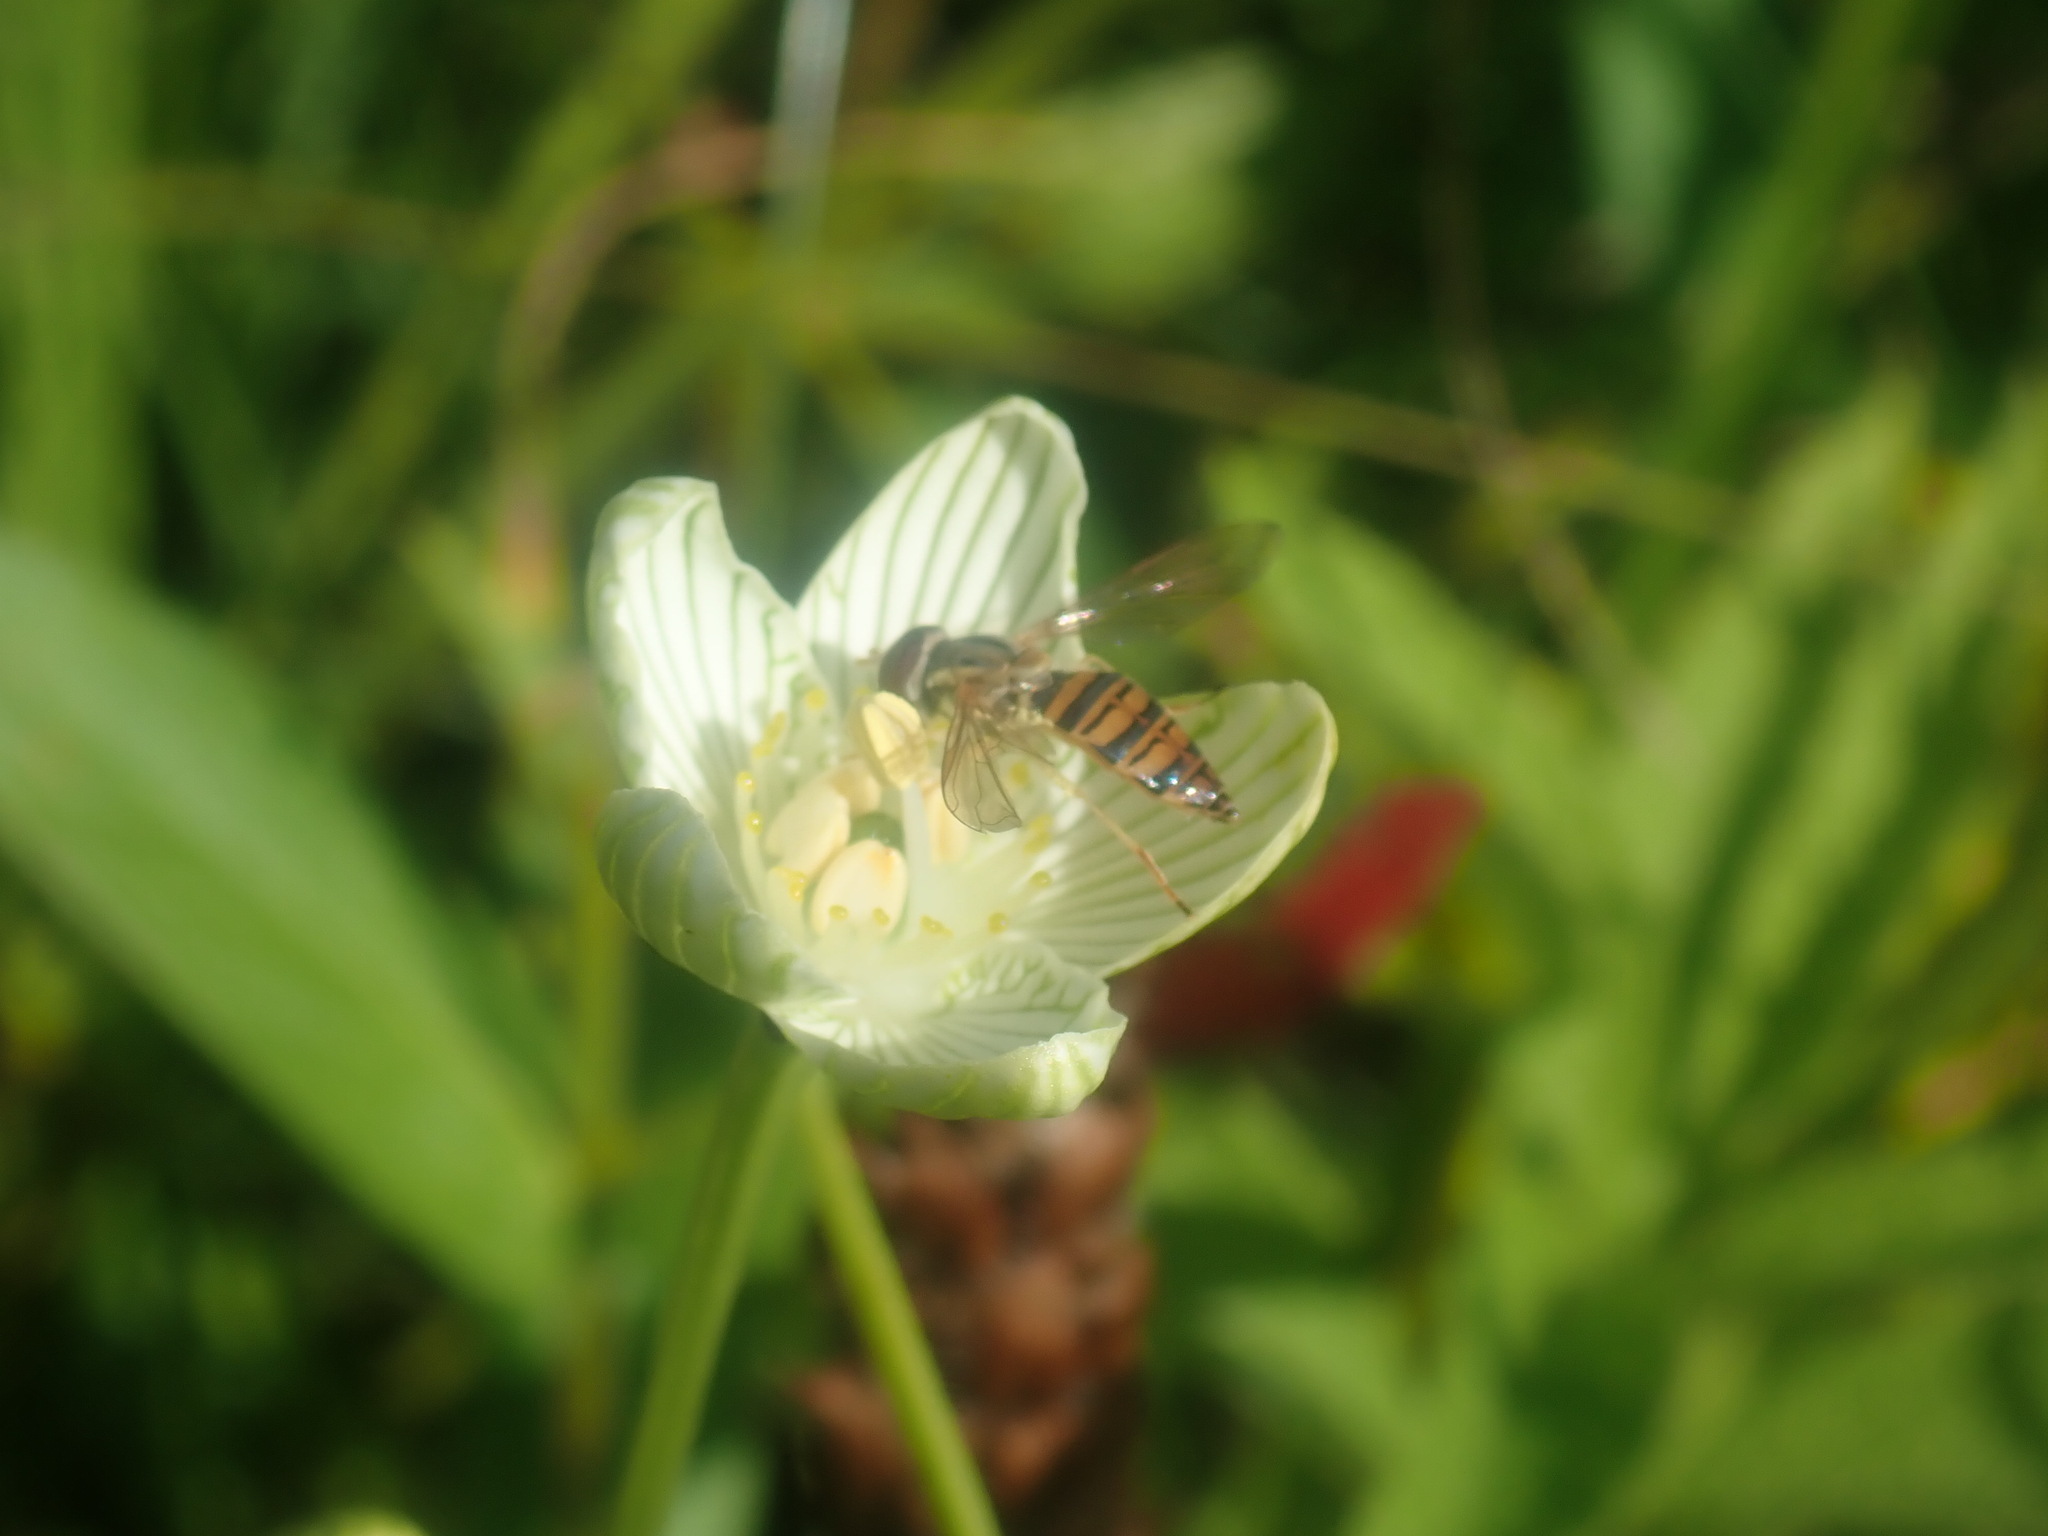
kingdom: Animalia
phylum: Arthropoda
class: Insecta
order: Diptera
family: Syrphidae
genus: Toxomerus
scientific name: Toxomerus politus
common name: Maize calligrapher
